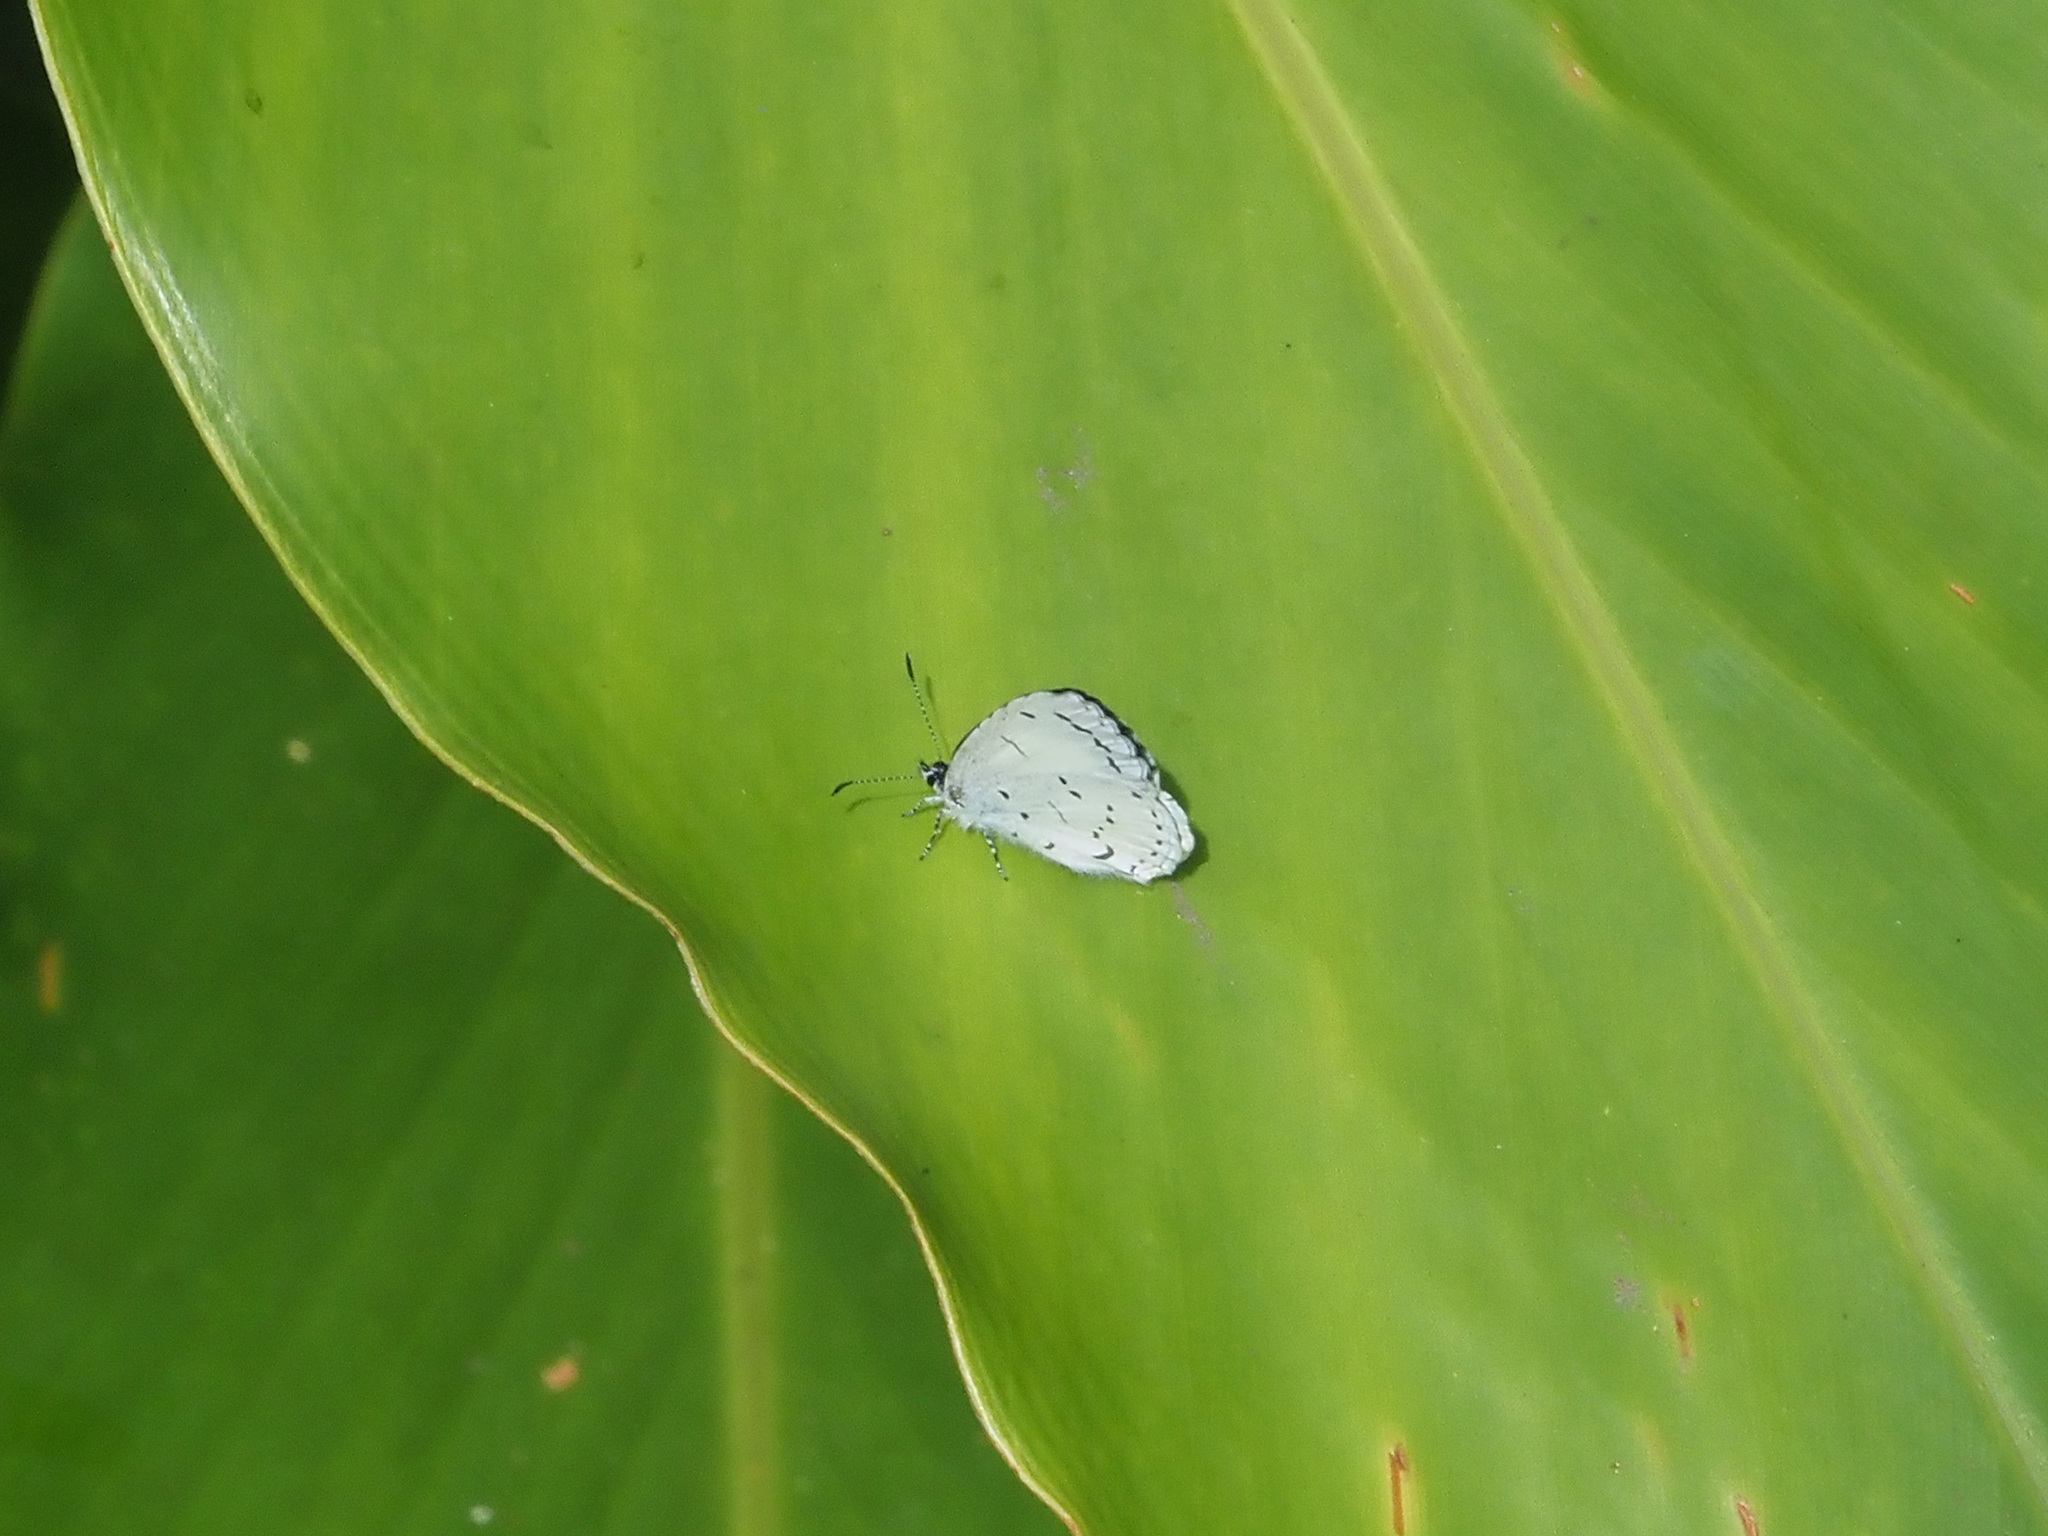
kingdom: Animalia
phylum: Arthropoda
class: Insecta
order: Lepidoptera
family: Lycaenidae
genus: Udara
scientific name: Udara
